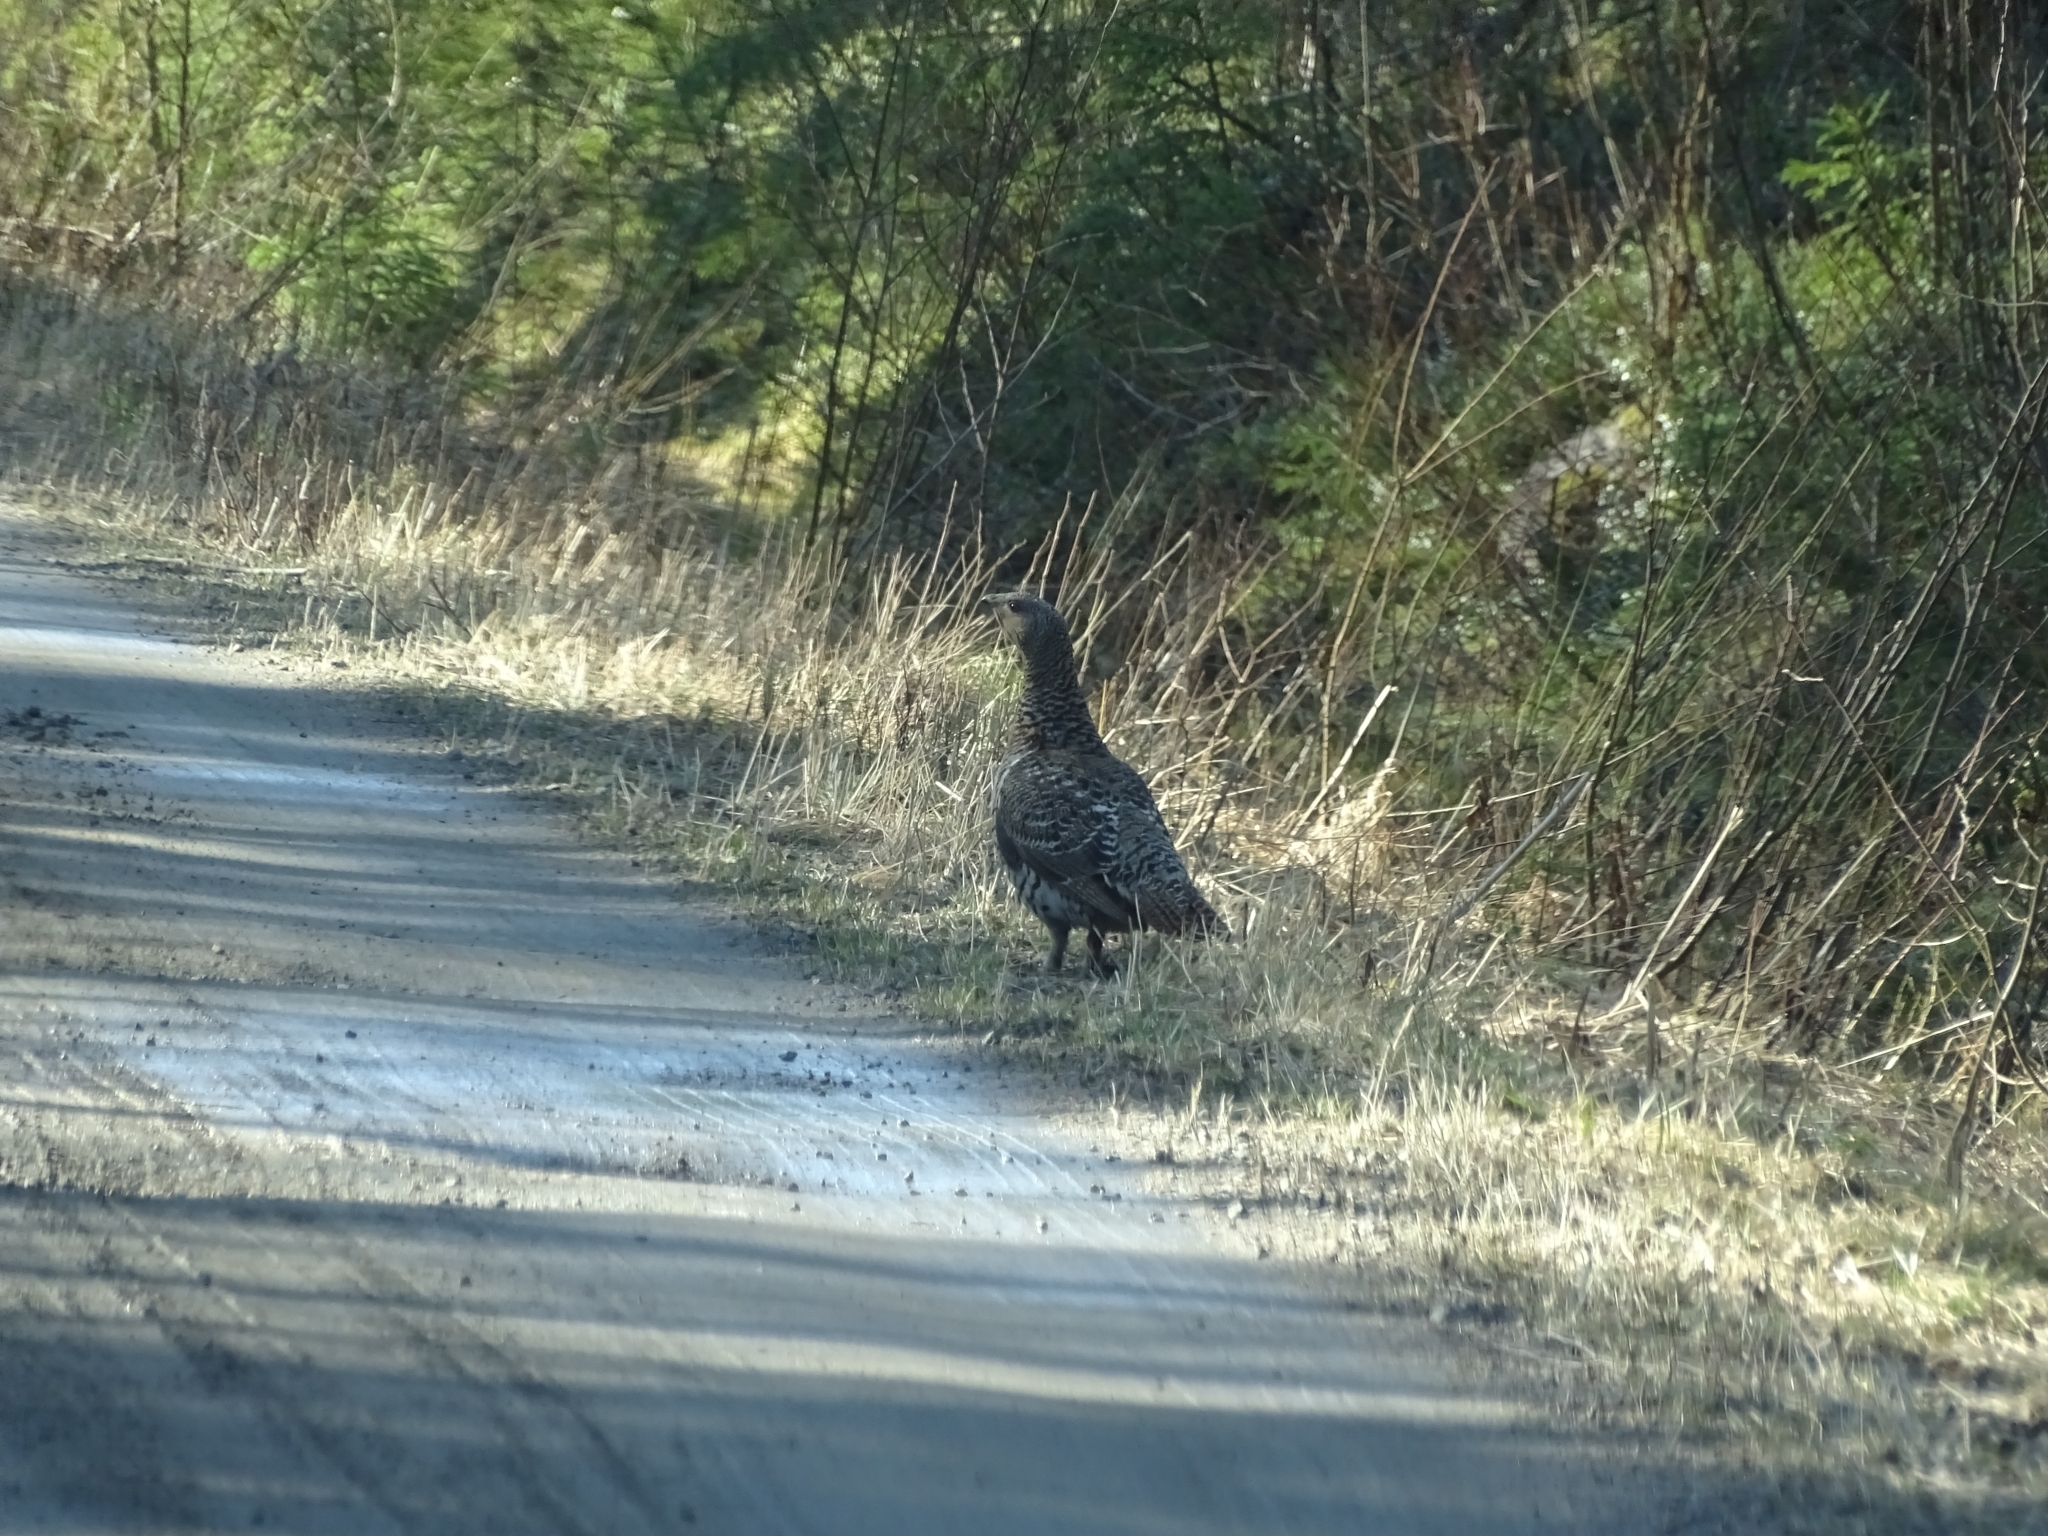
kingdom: Animalia
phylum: Chordata
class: Aves
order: Galliformes
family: Phasianidae
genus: Tetrao
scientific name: Tetrao urogallus
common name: Western capercaillie
